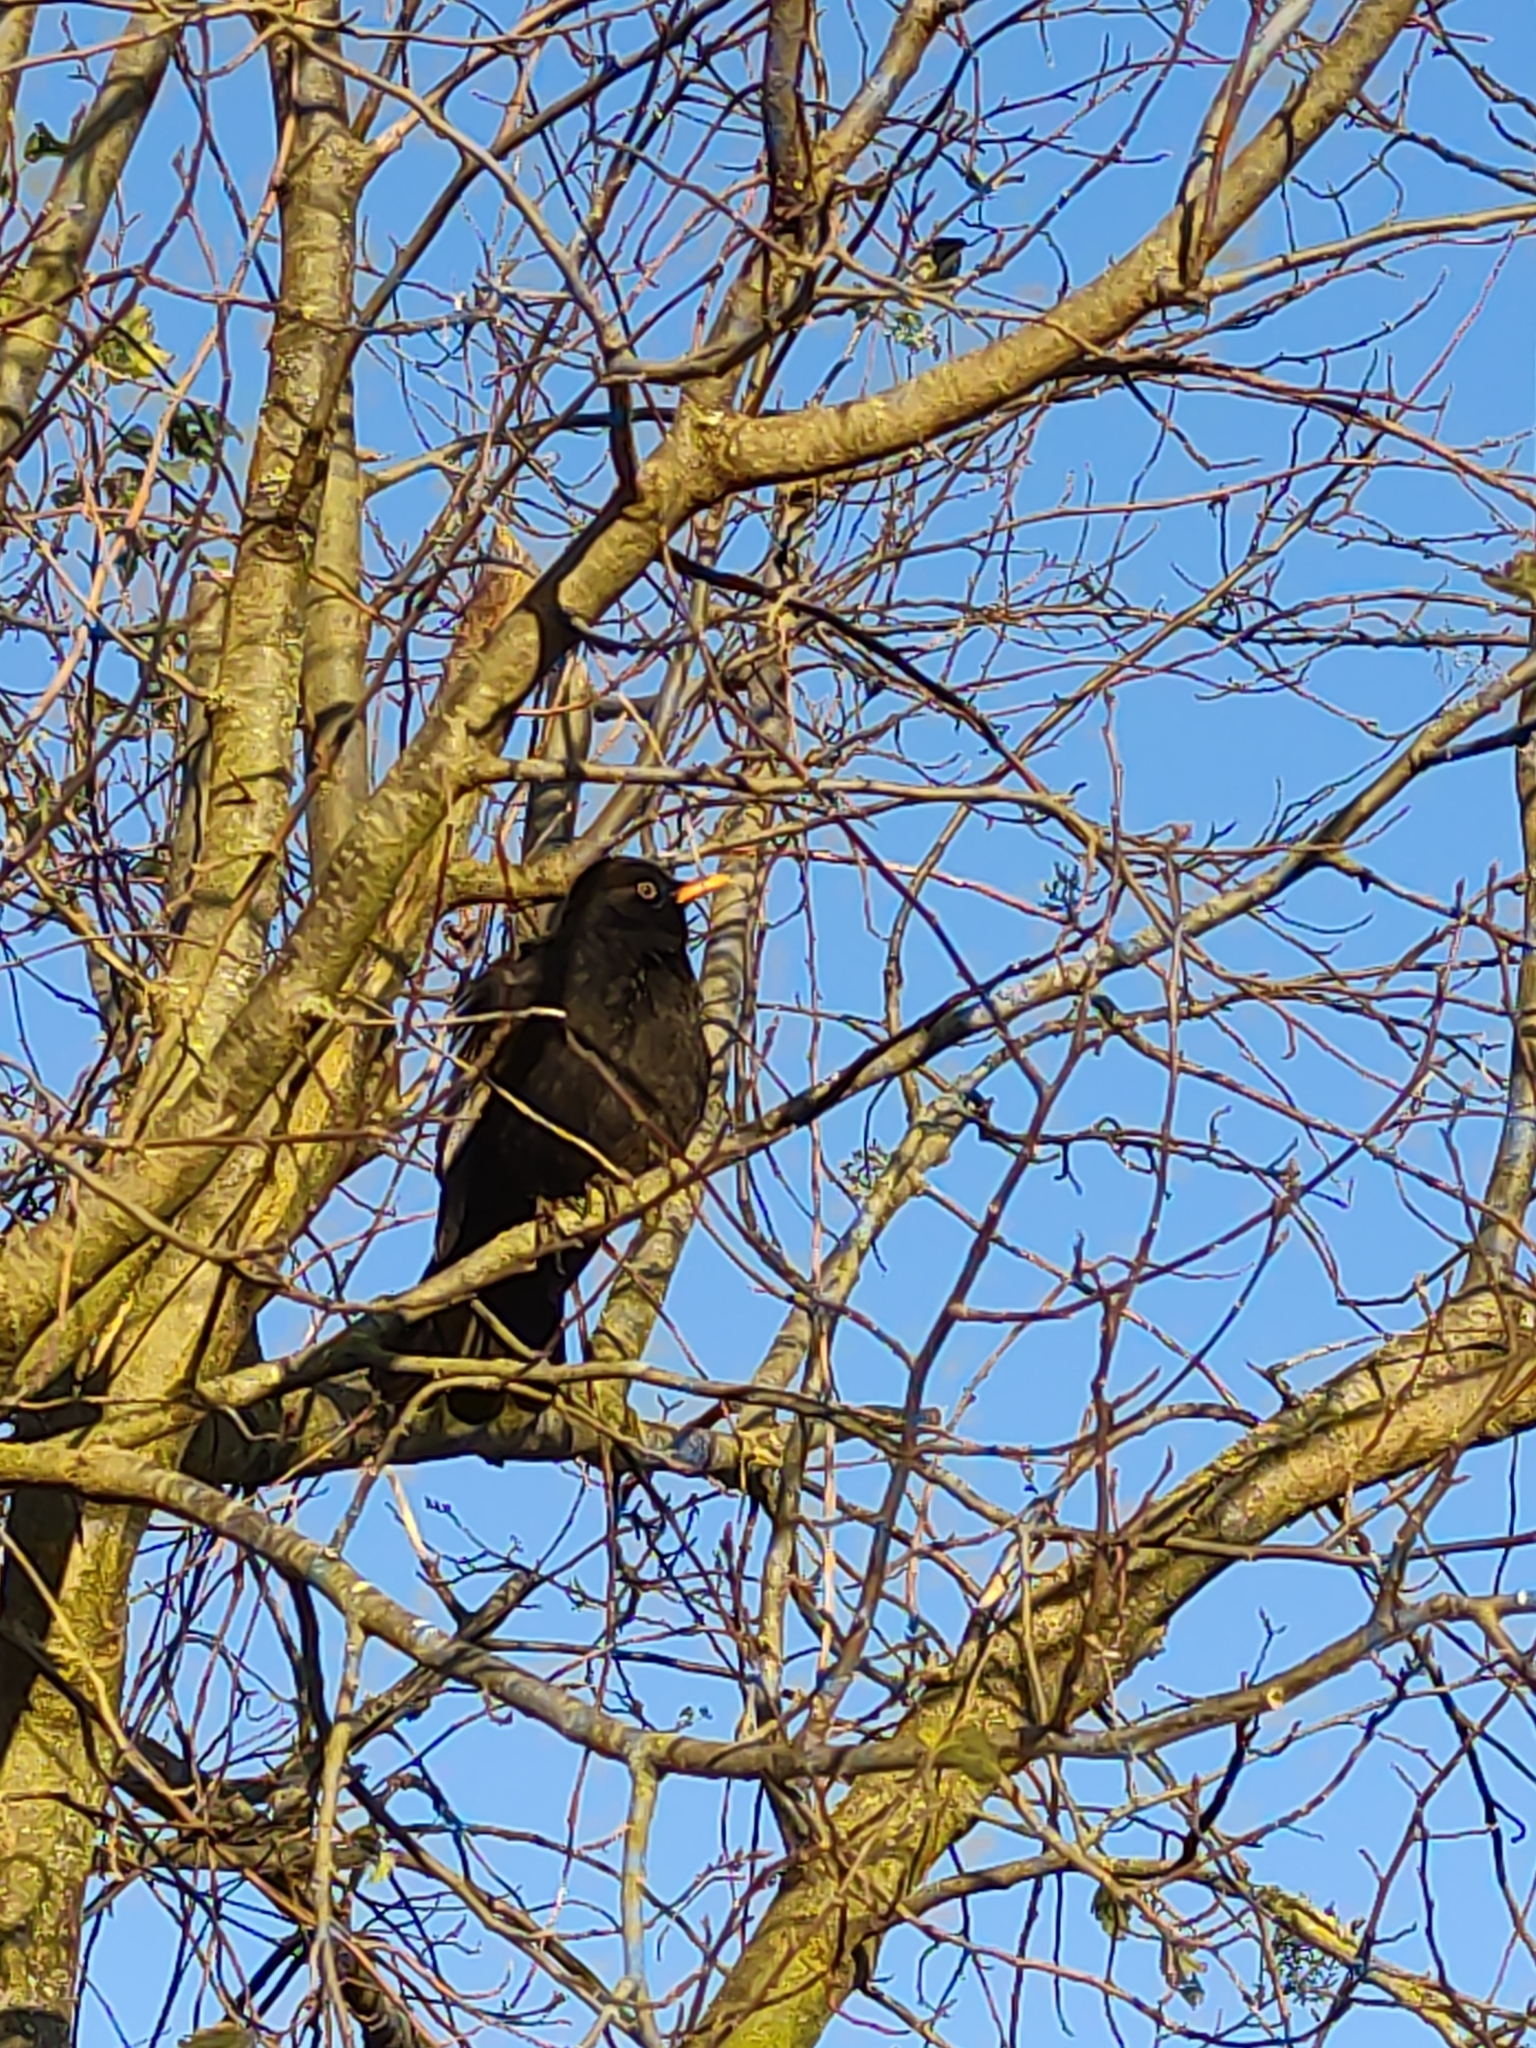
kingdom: Animalia
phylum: Chordata
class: Aves
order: Passeriformes
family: Turdidae
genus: Turdus
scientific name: Turdus merula
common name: Common blackbird
